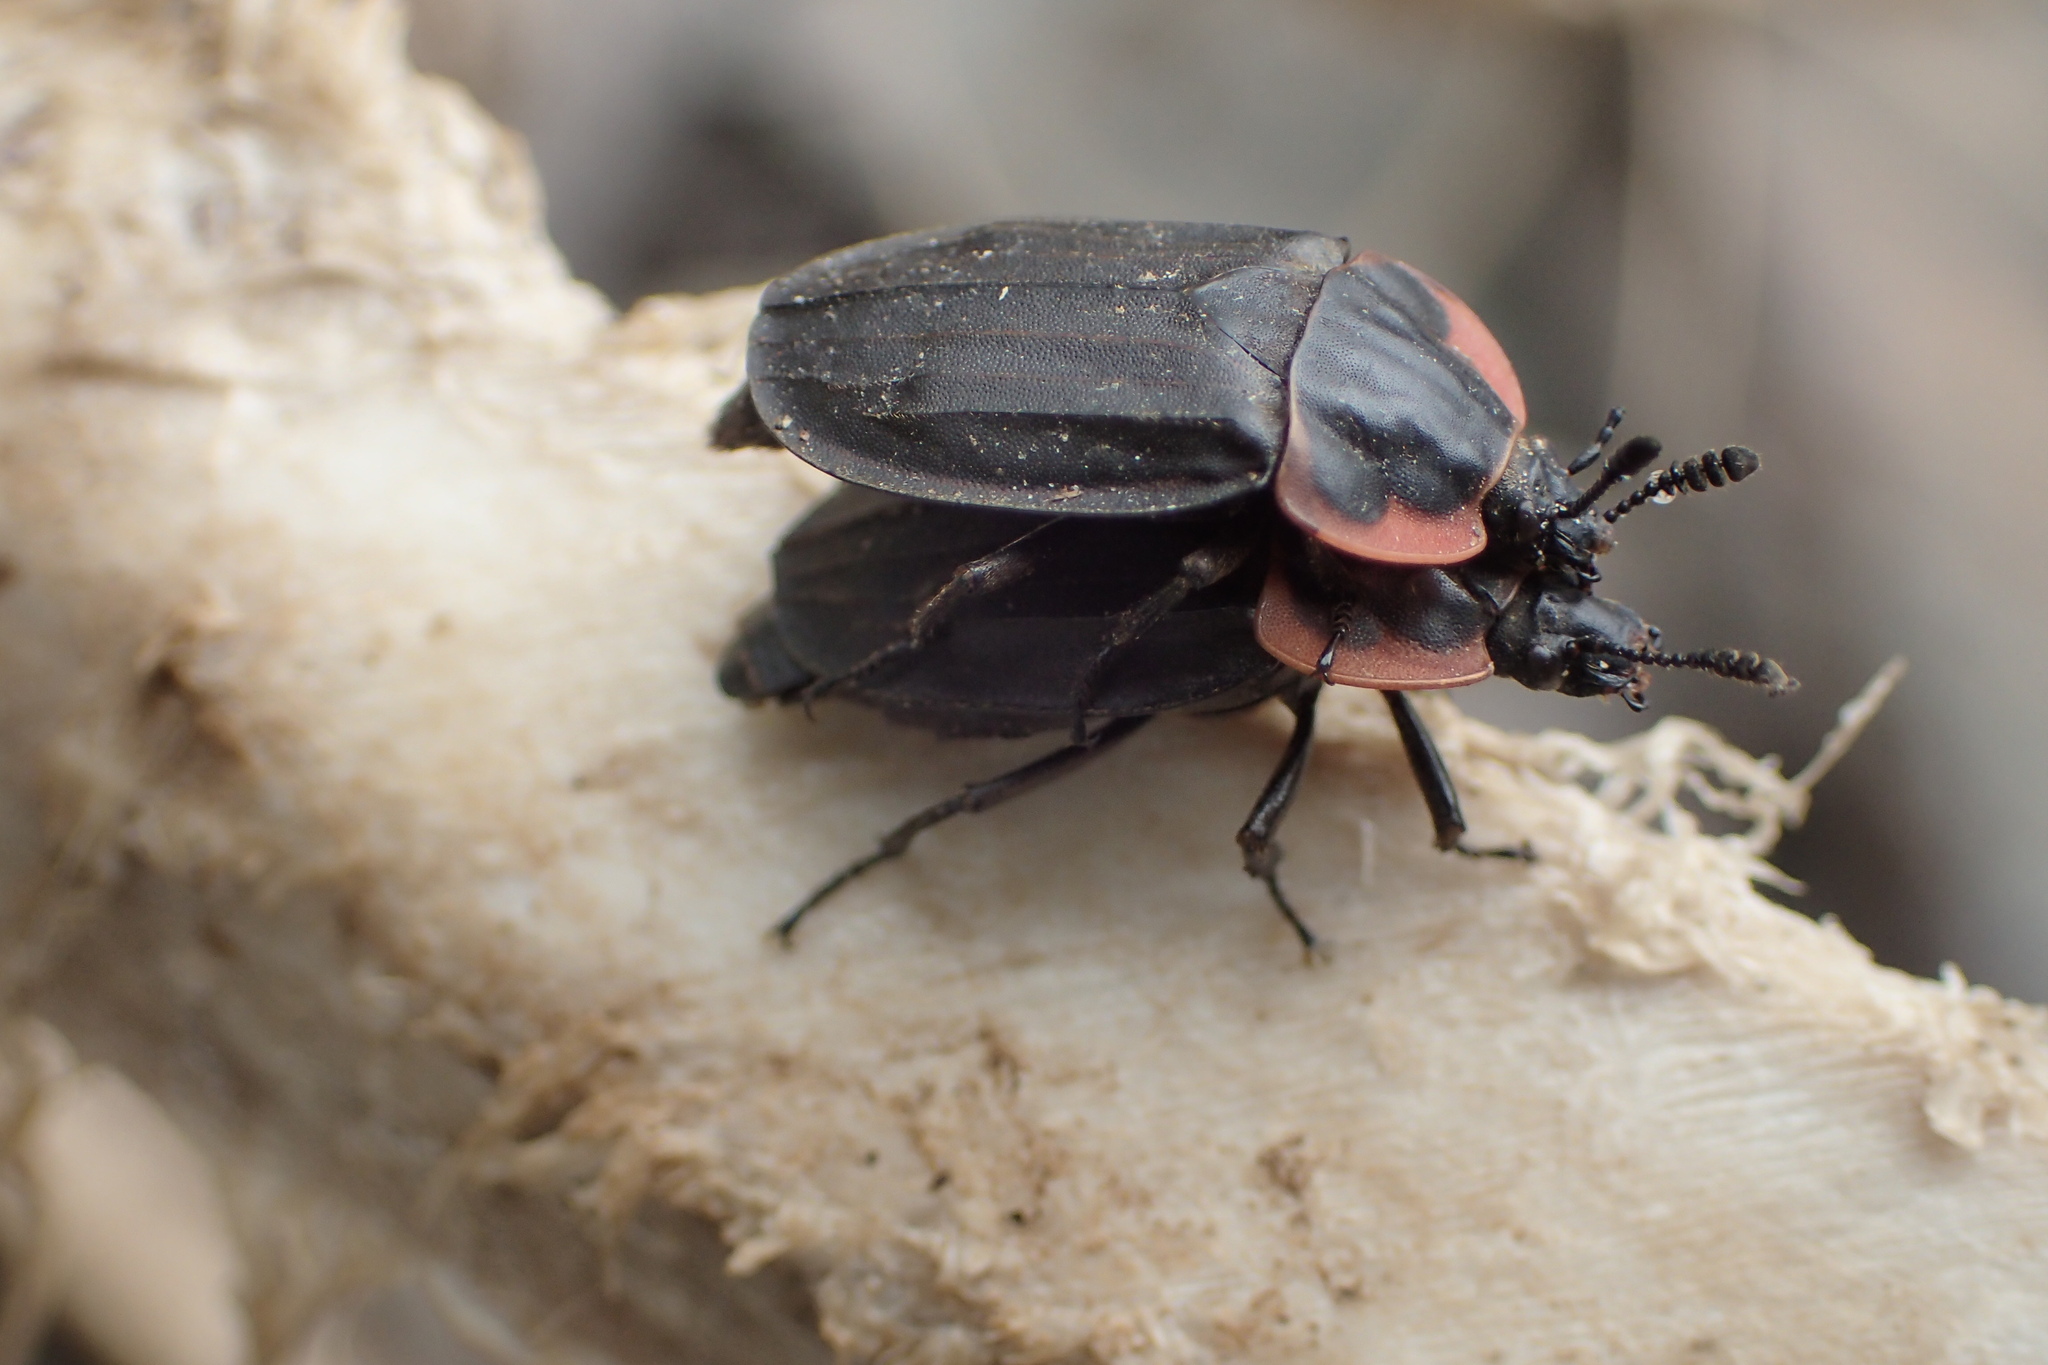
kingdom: Animalia
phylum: Arthropoda
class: Insecta
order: Coleoptera
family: Staphylinidae
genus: Oiceoptoma
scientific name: Oiceoptoma noveboracense
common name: Margined carrion beetle
